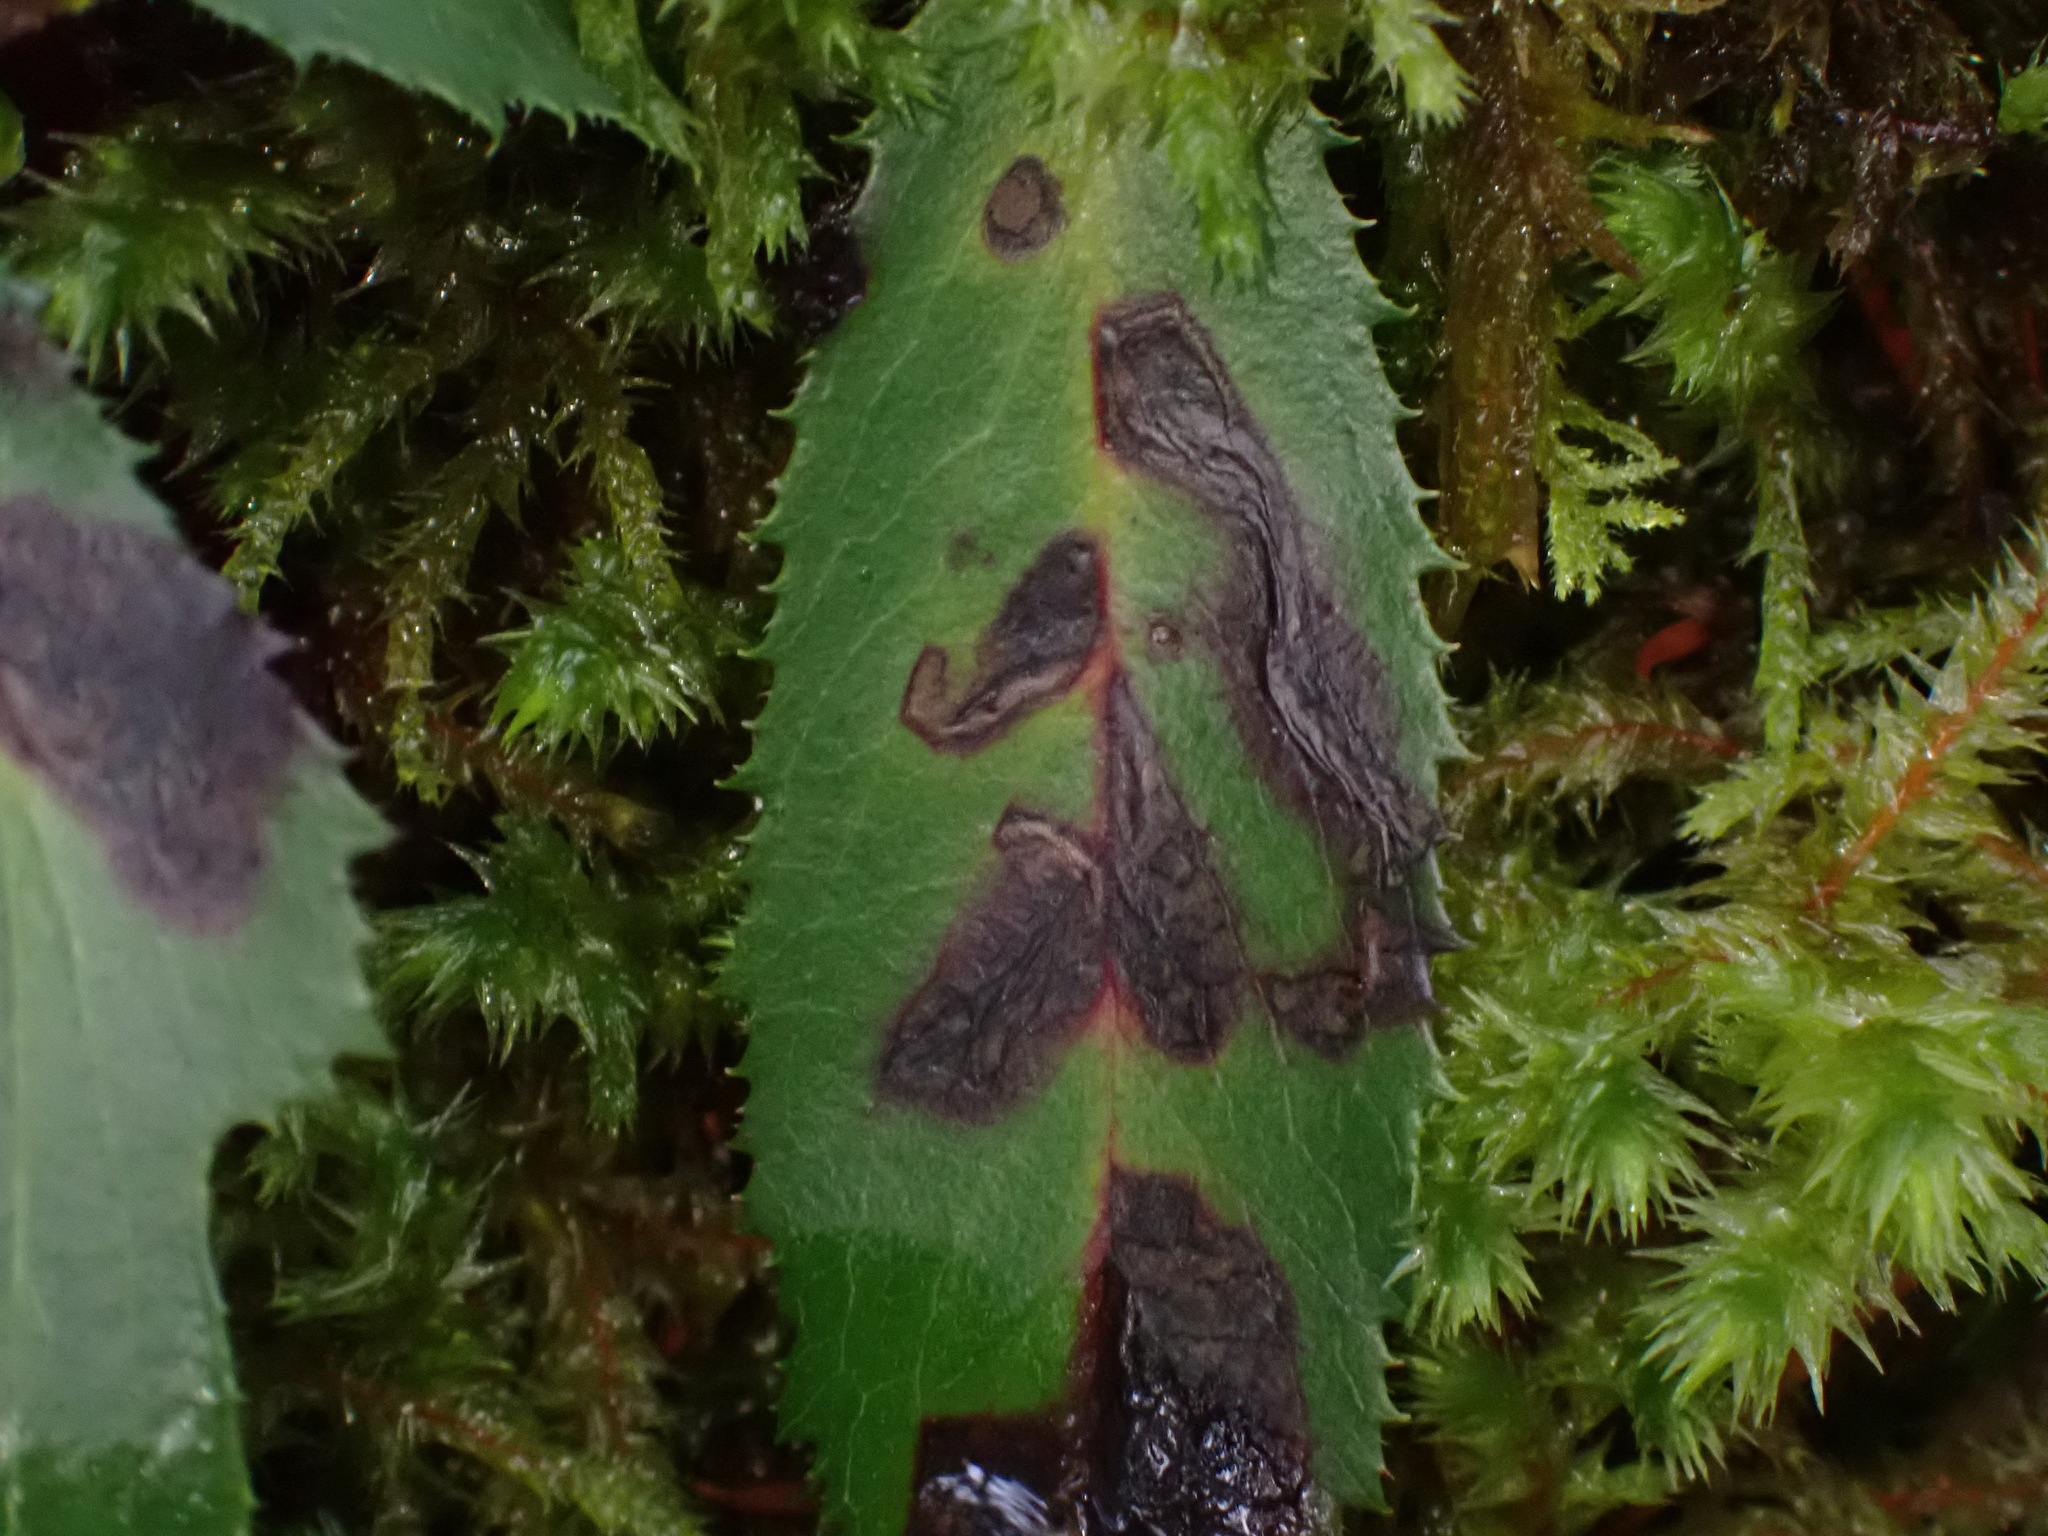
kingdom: Plantae
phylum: Tracheophyta
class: Magnoliopsida
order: Ericales
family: Ericaceae
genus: Chimaphila
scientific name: Chimaphila umbellata
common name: Pipsissewa
